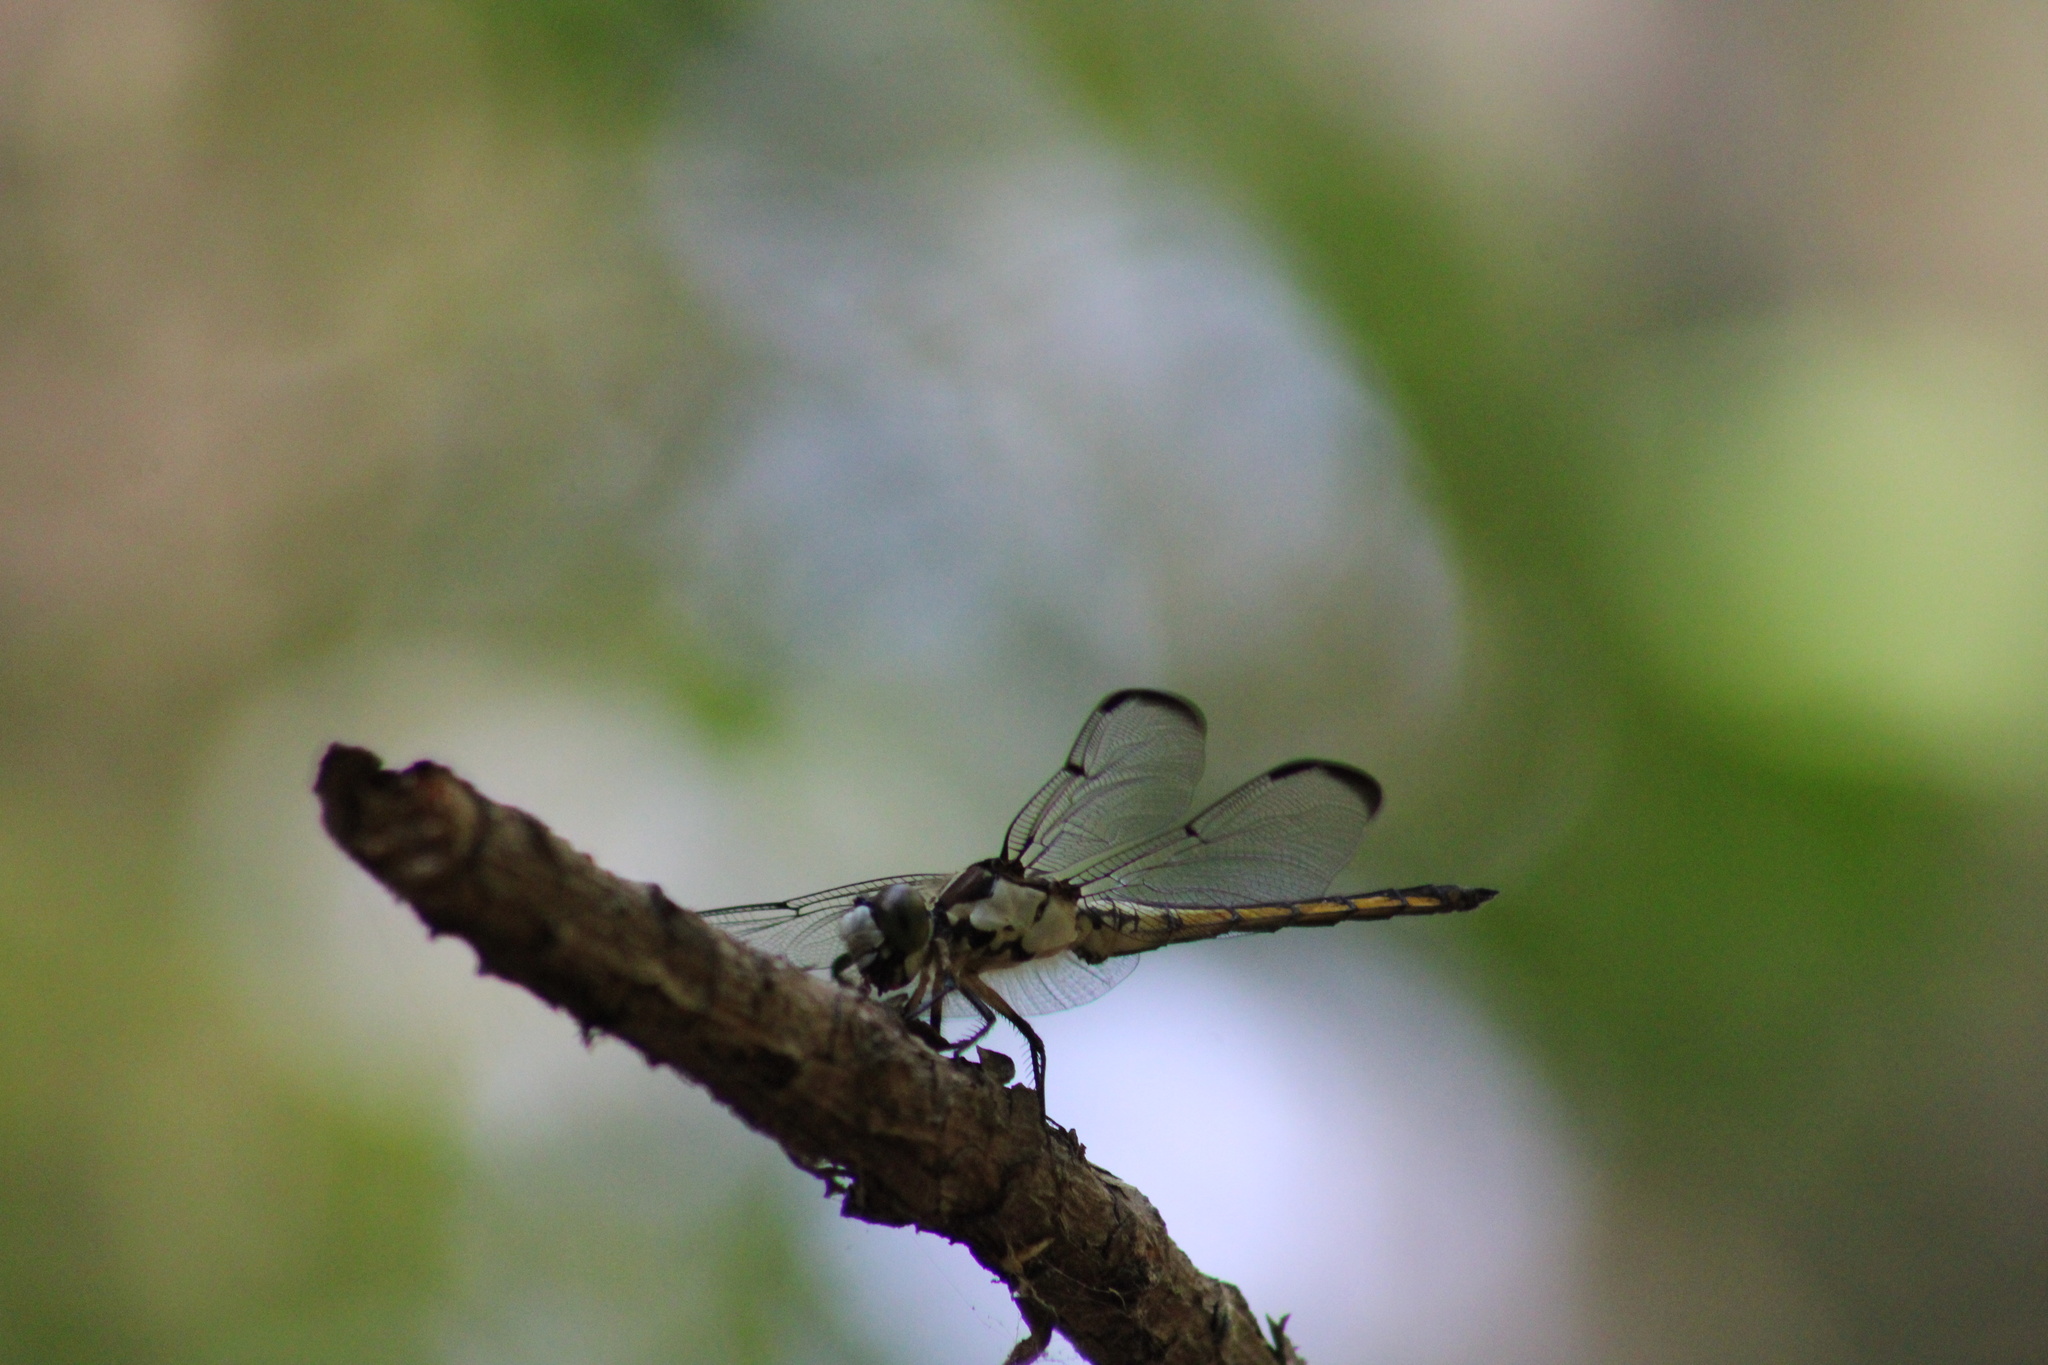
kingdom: Animalia
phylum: Arthropoda
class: Insecta
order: Odonata
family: Libellulidae
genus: Libellula
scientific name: Libellula vibrans
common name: Great blue skimmer
